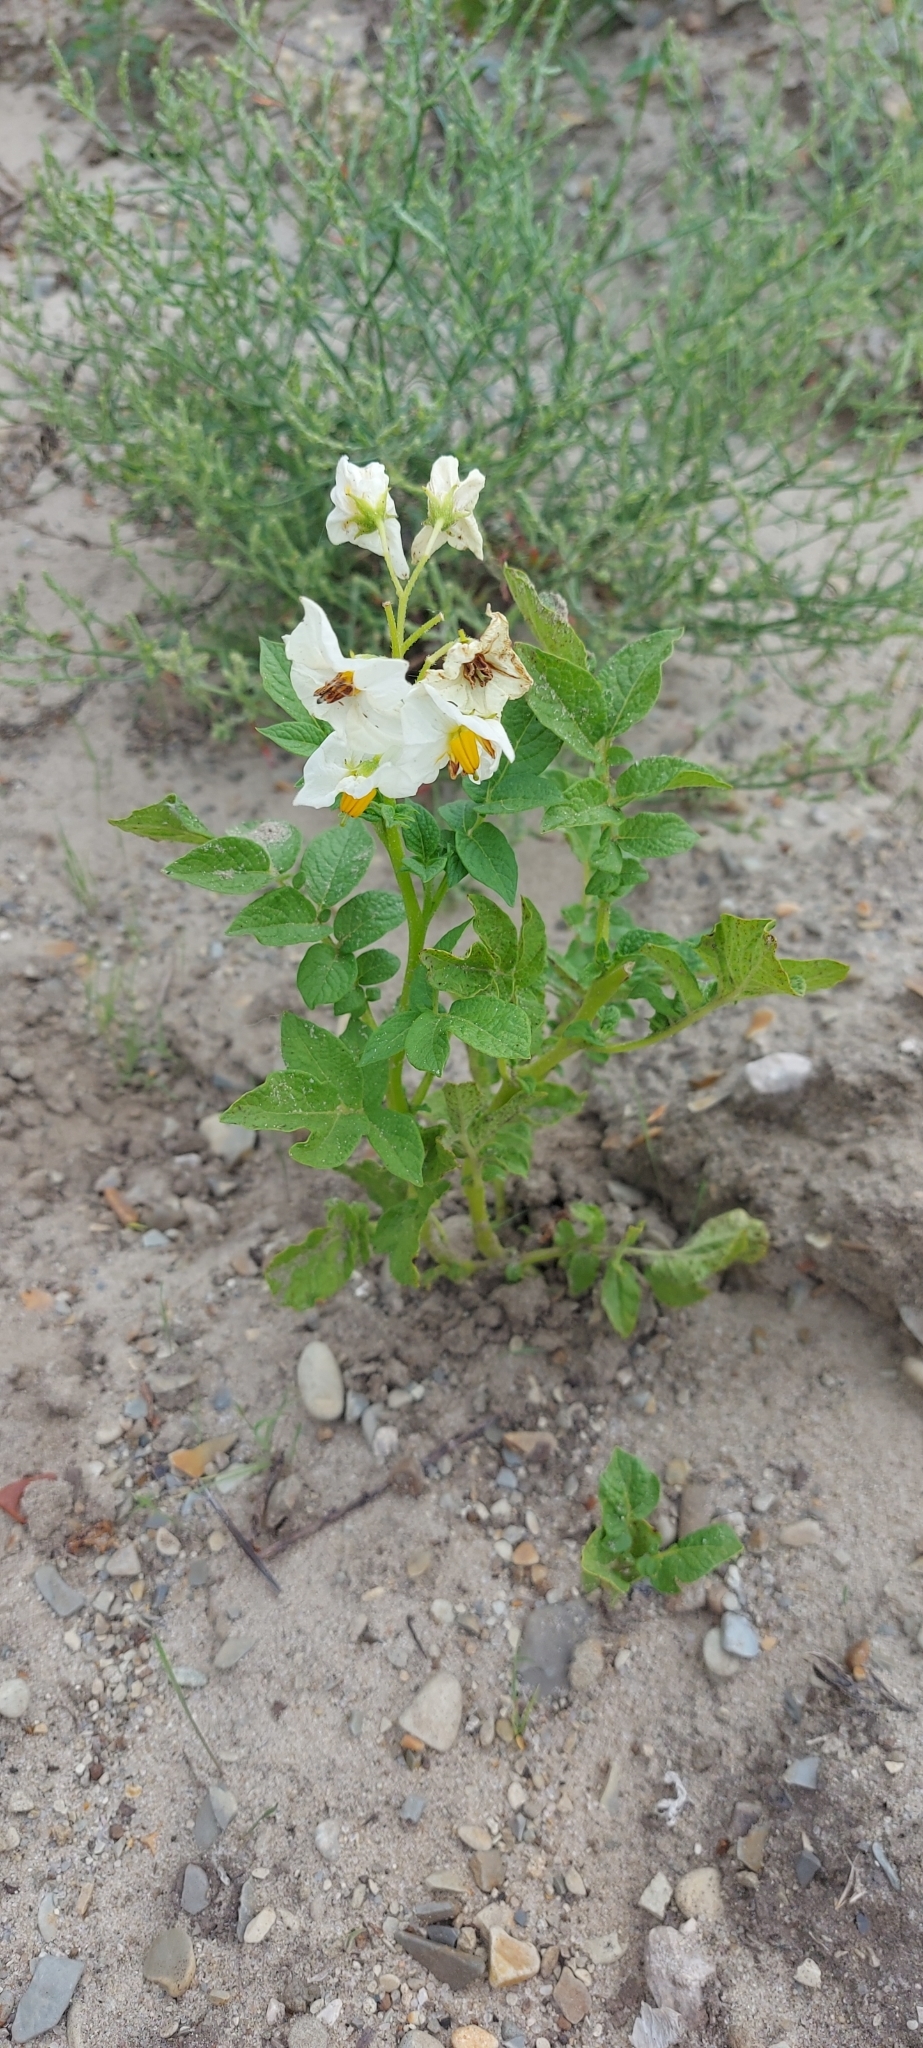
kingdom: Plantae
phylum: Tracheophyta
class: Magnoliopsida
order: Solanales
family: Solanaceae
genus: Solanum
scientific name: Solanum tuberosum
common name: Potato
